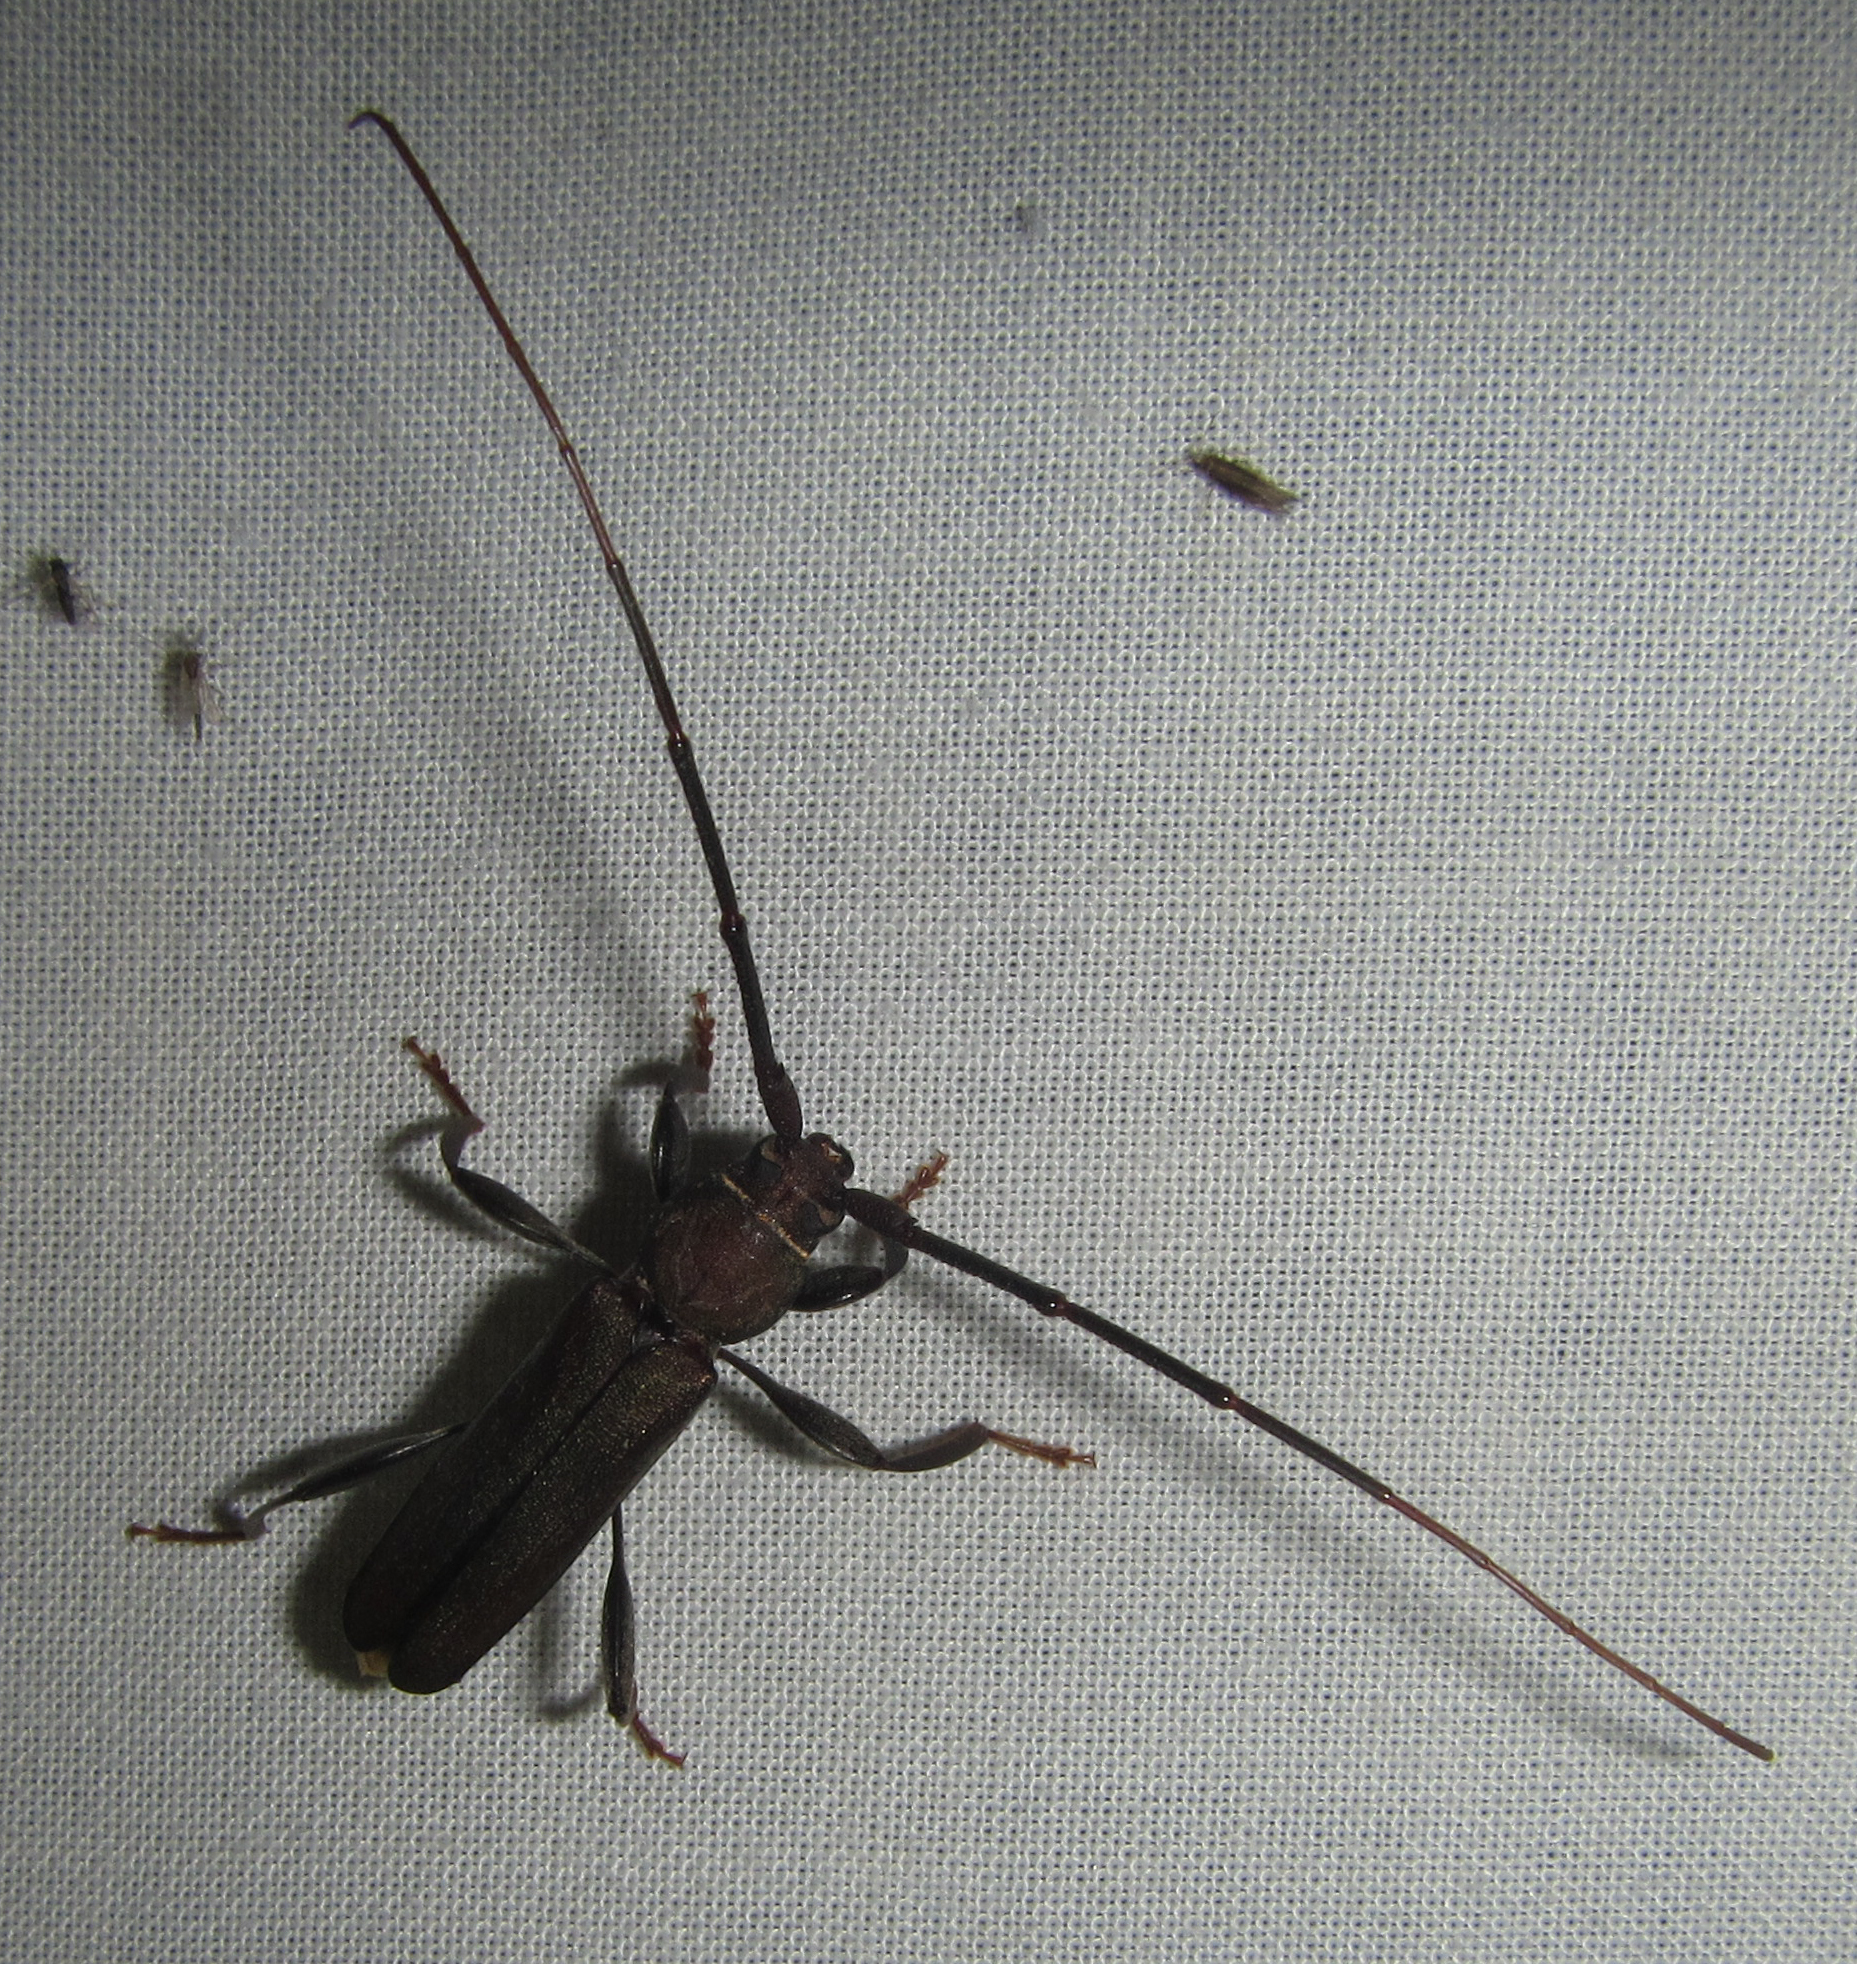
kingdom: Animalia
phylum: Arthropoda
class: Insecta
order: Coleoptera
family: Cerambycidae
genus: Xystrocera
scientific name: Xystrocera erosa
